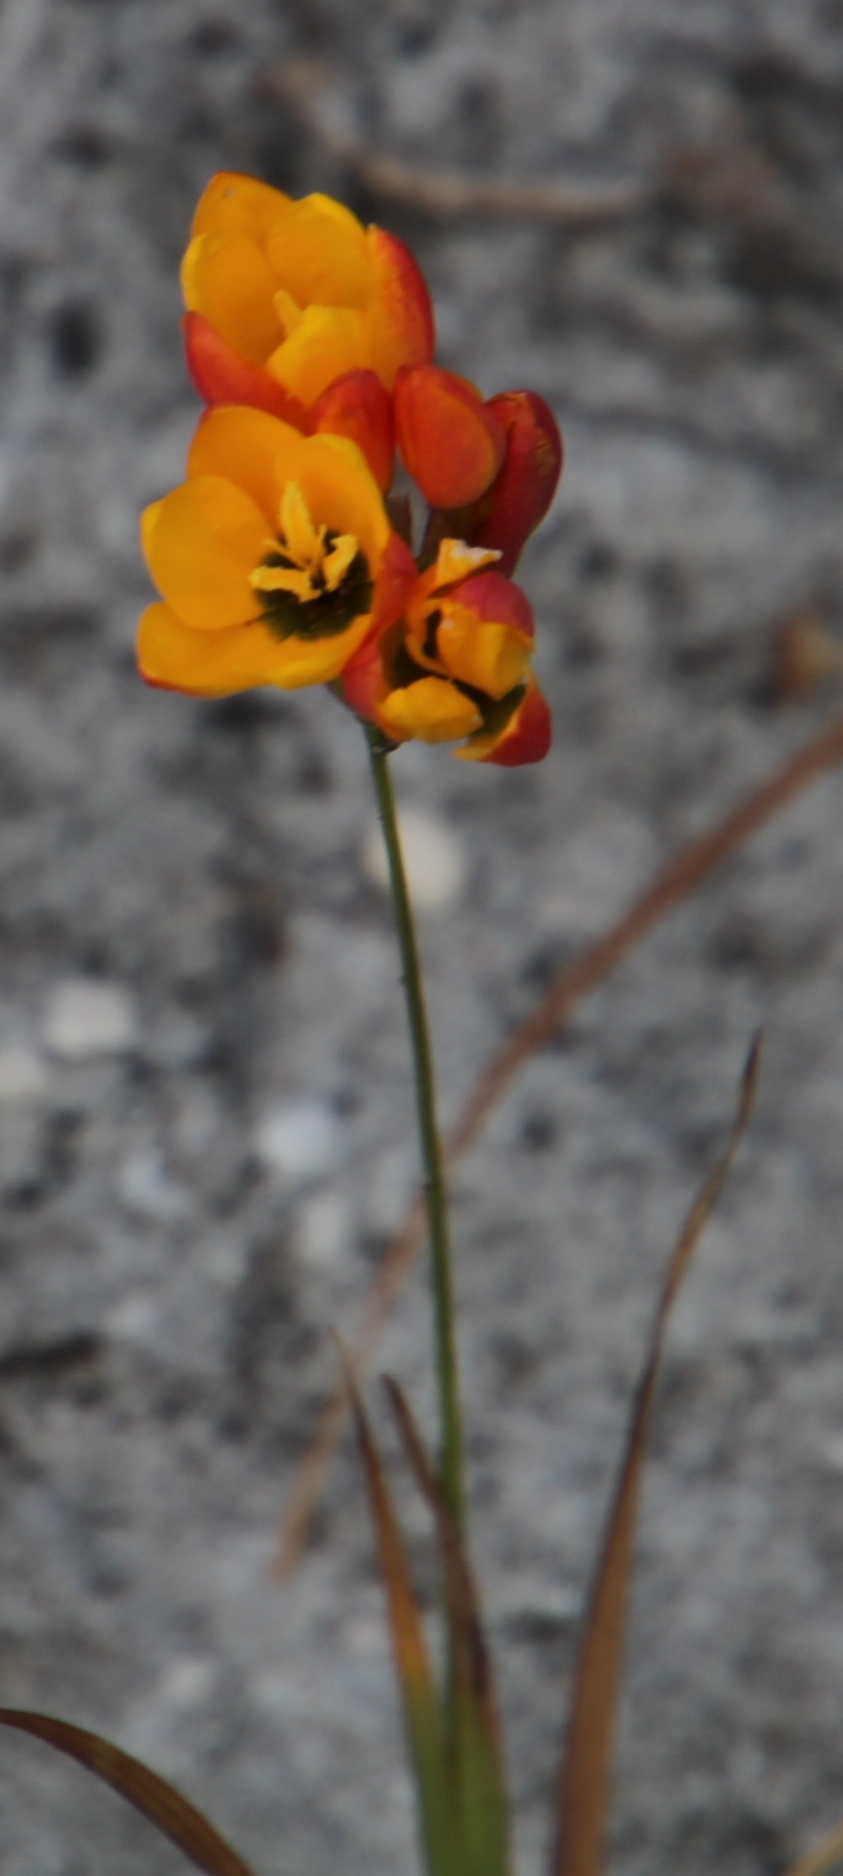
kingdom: Plantae
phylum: Tracheophyta
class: Liliopsida
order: Asparagales
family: Iridaceae
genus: Ixia
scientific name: Ixia dubia
